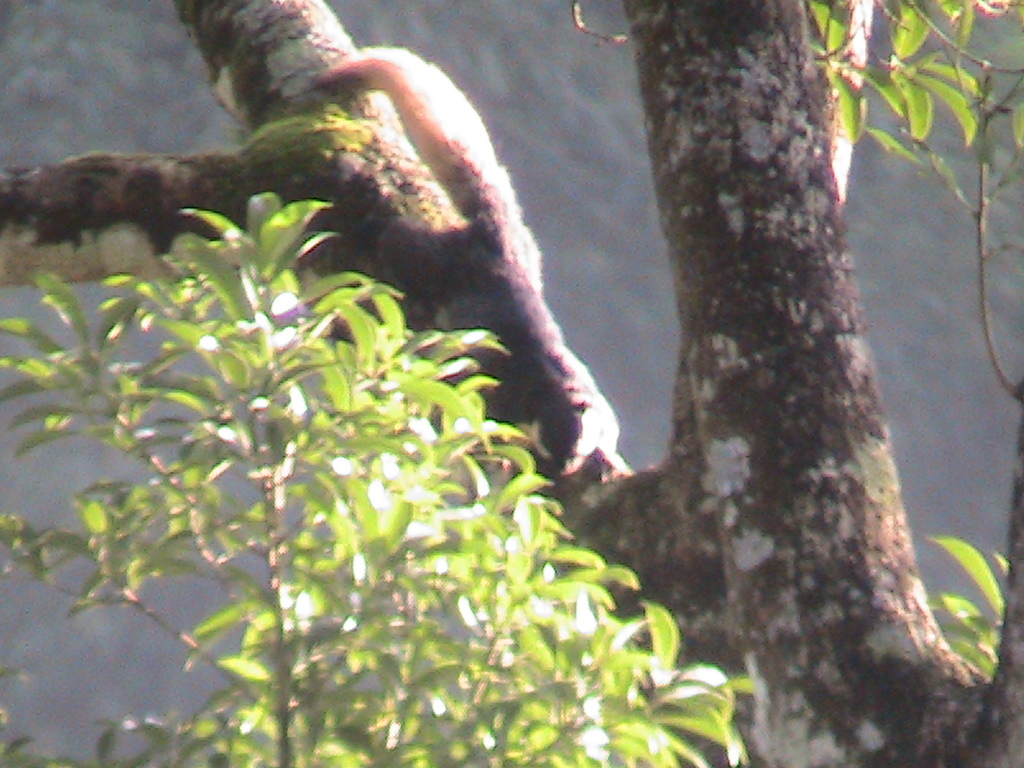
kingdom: Animalia
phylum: Chordata
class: Mammalia
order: Rodentia
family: Sciuridae
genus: Ratufa
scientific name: Ratufa bicolor
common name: Black giant squirrel
